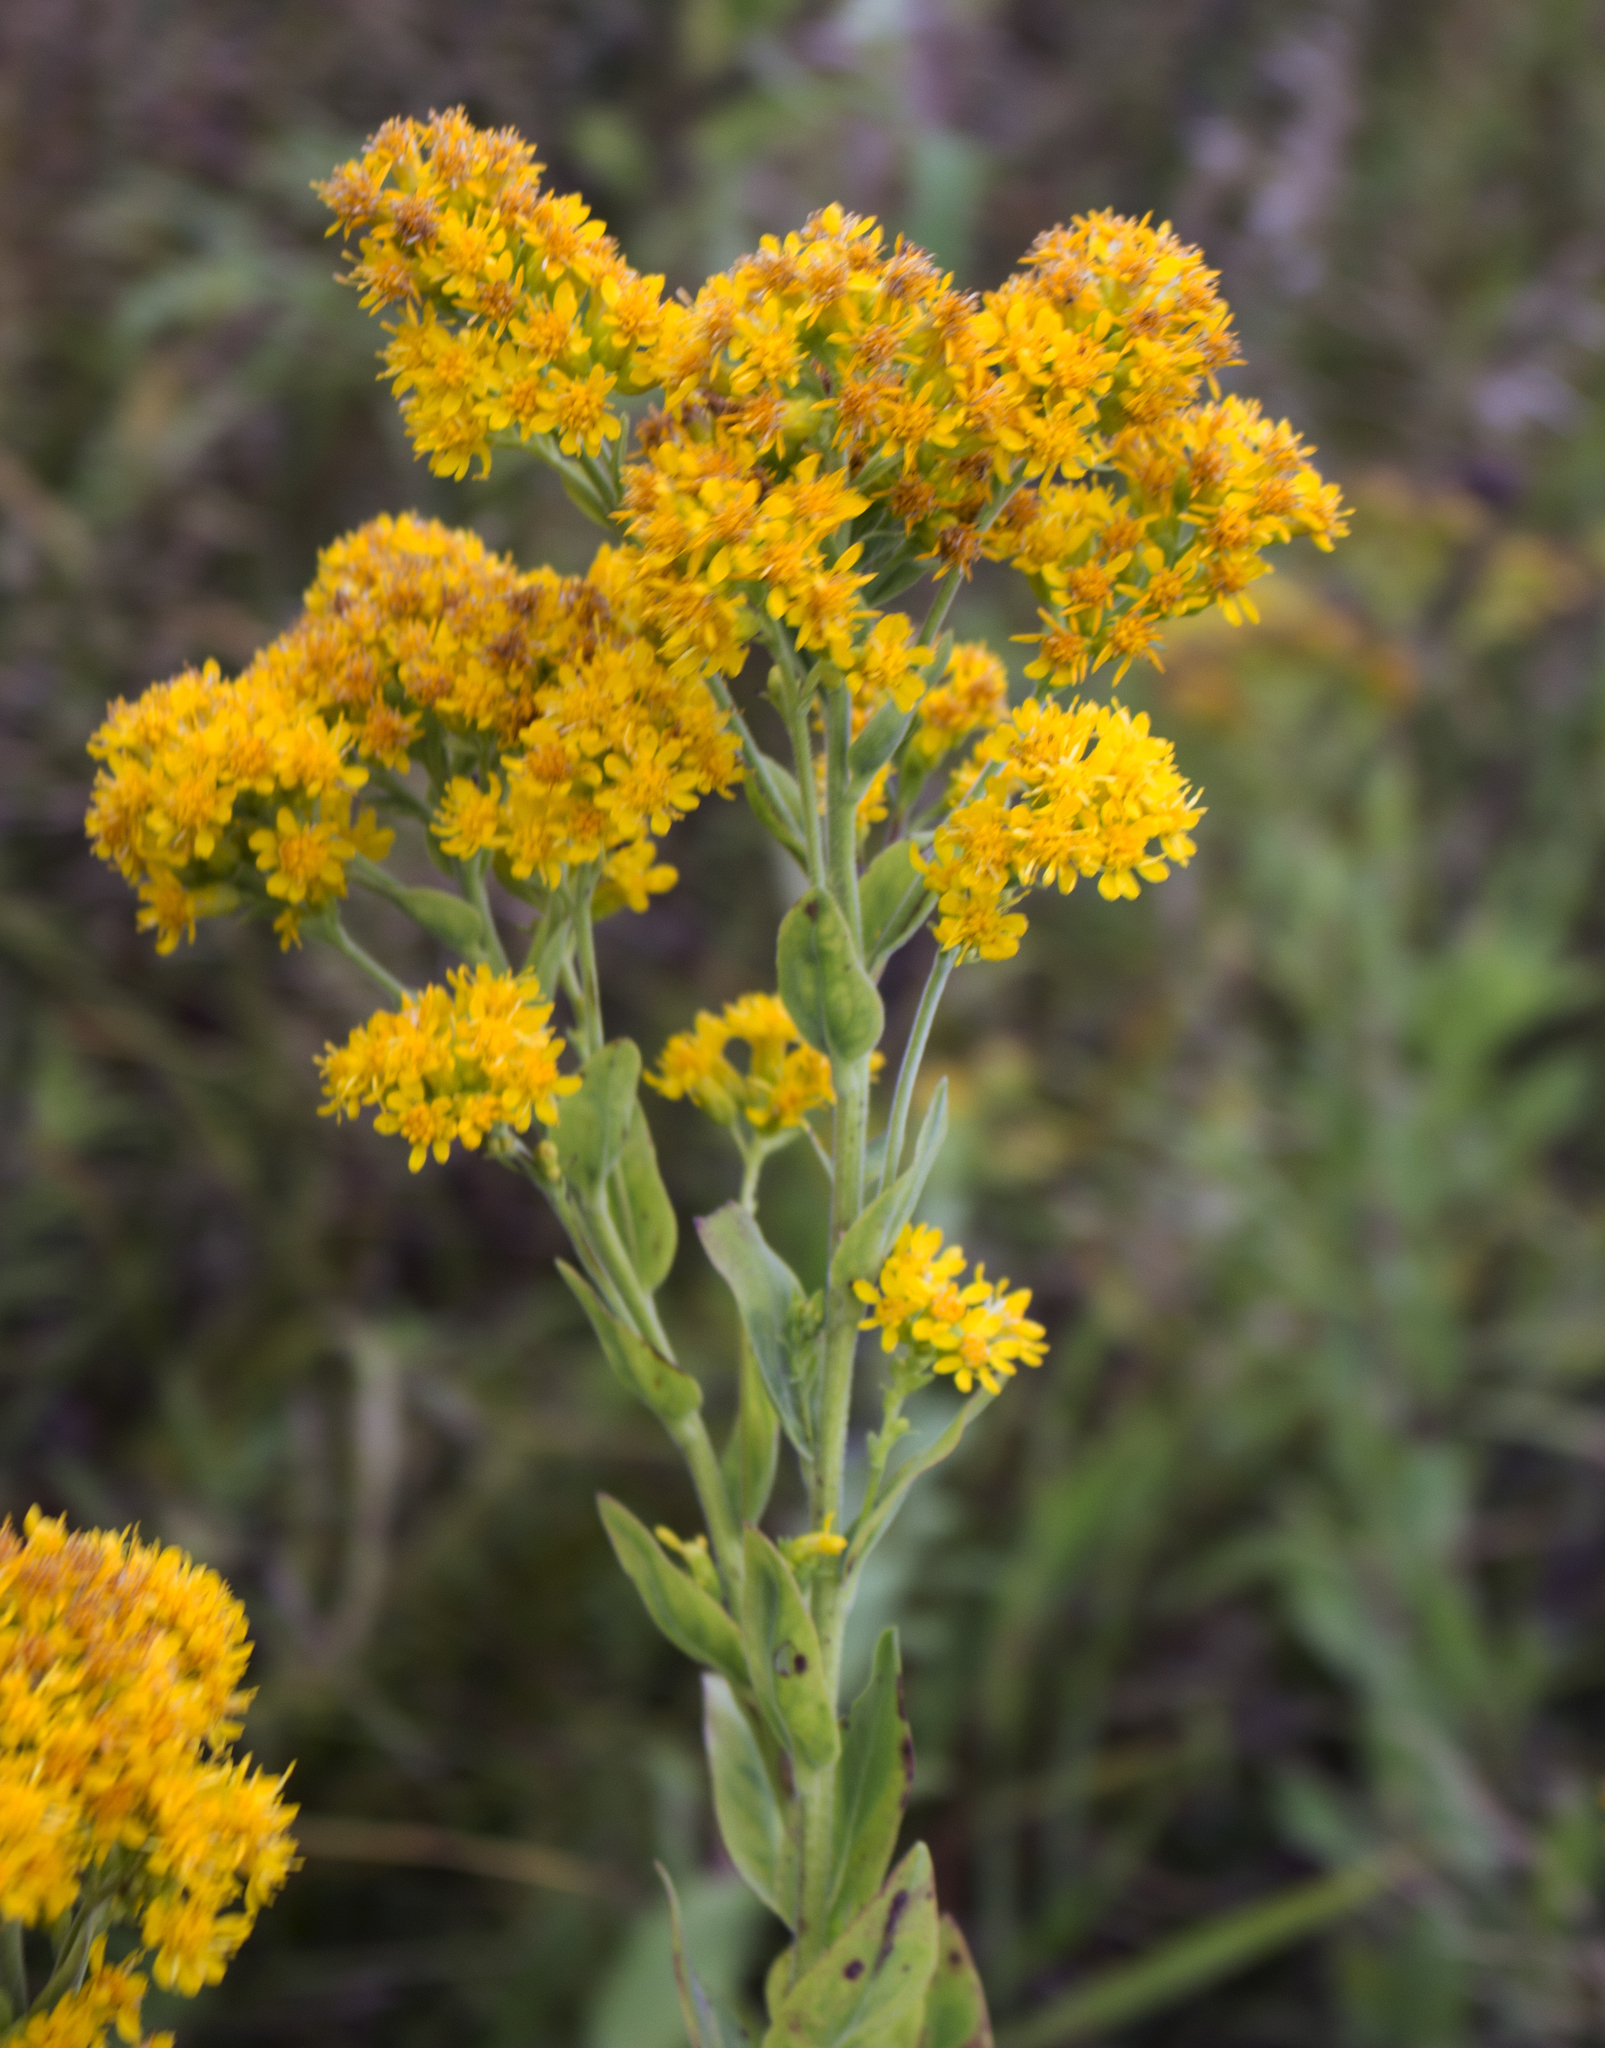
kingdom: Plantae
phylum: Tracheophyta
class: Magnoliopsida
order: Asterales
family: Asteraceae
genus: Solidago
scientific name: Solidago rigida
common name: Rigid goldenrod
